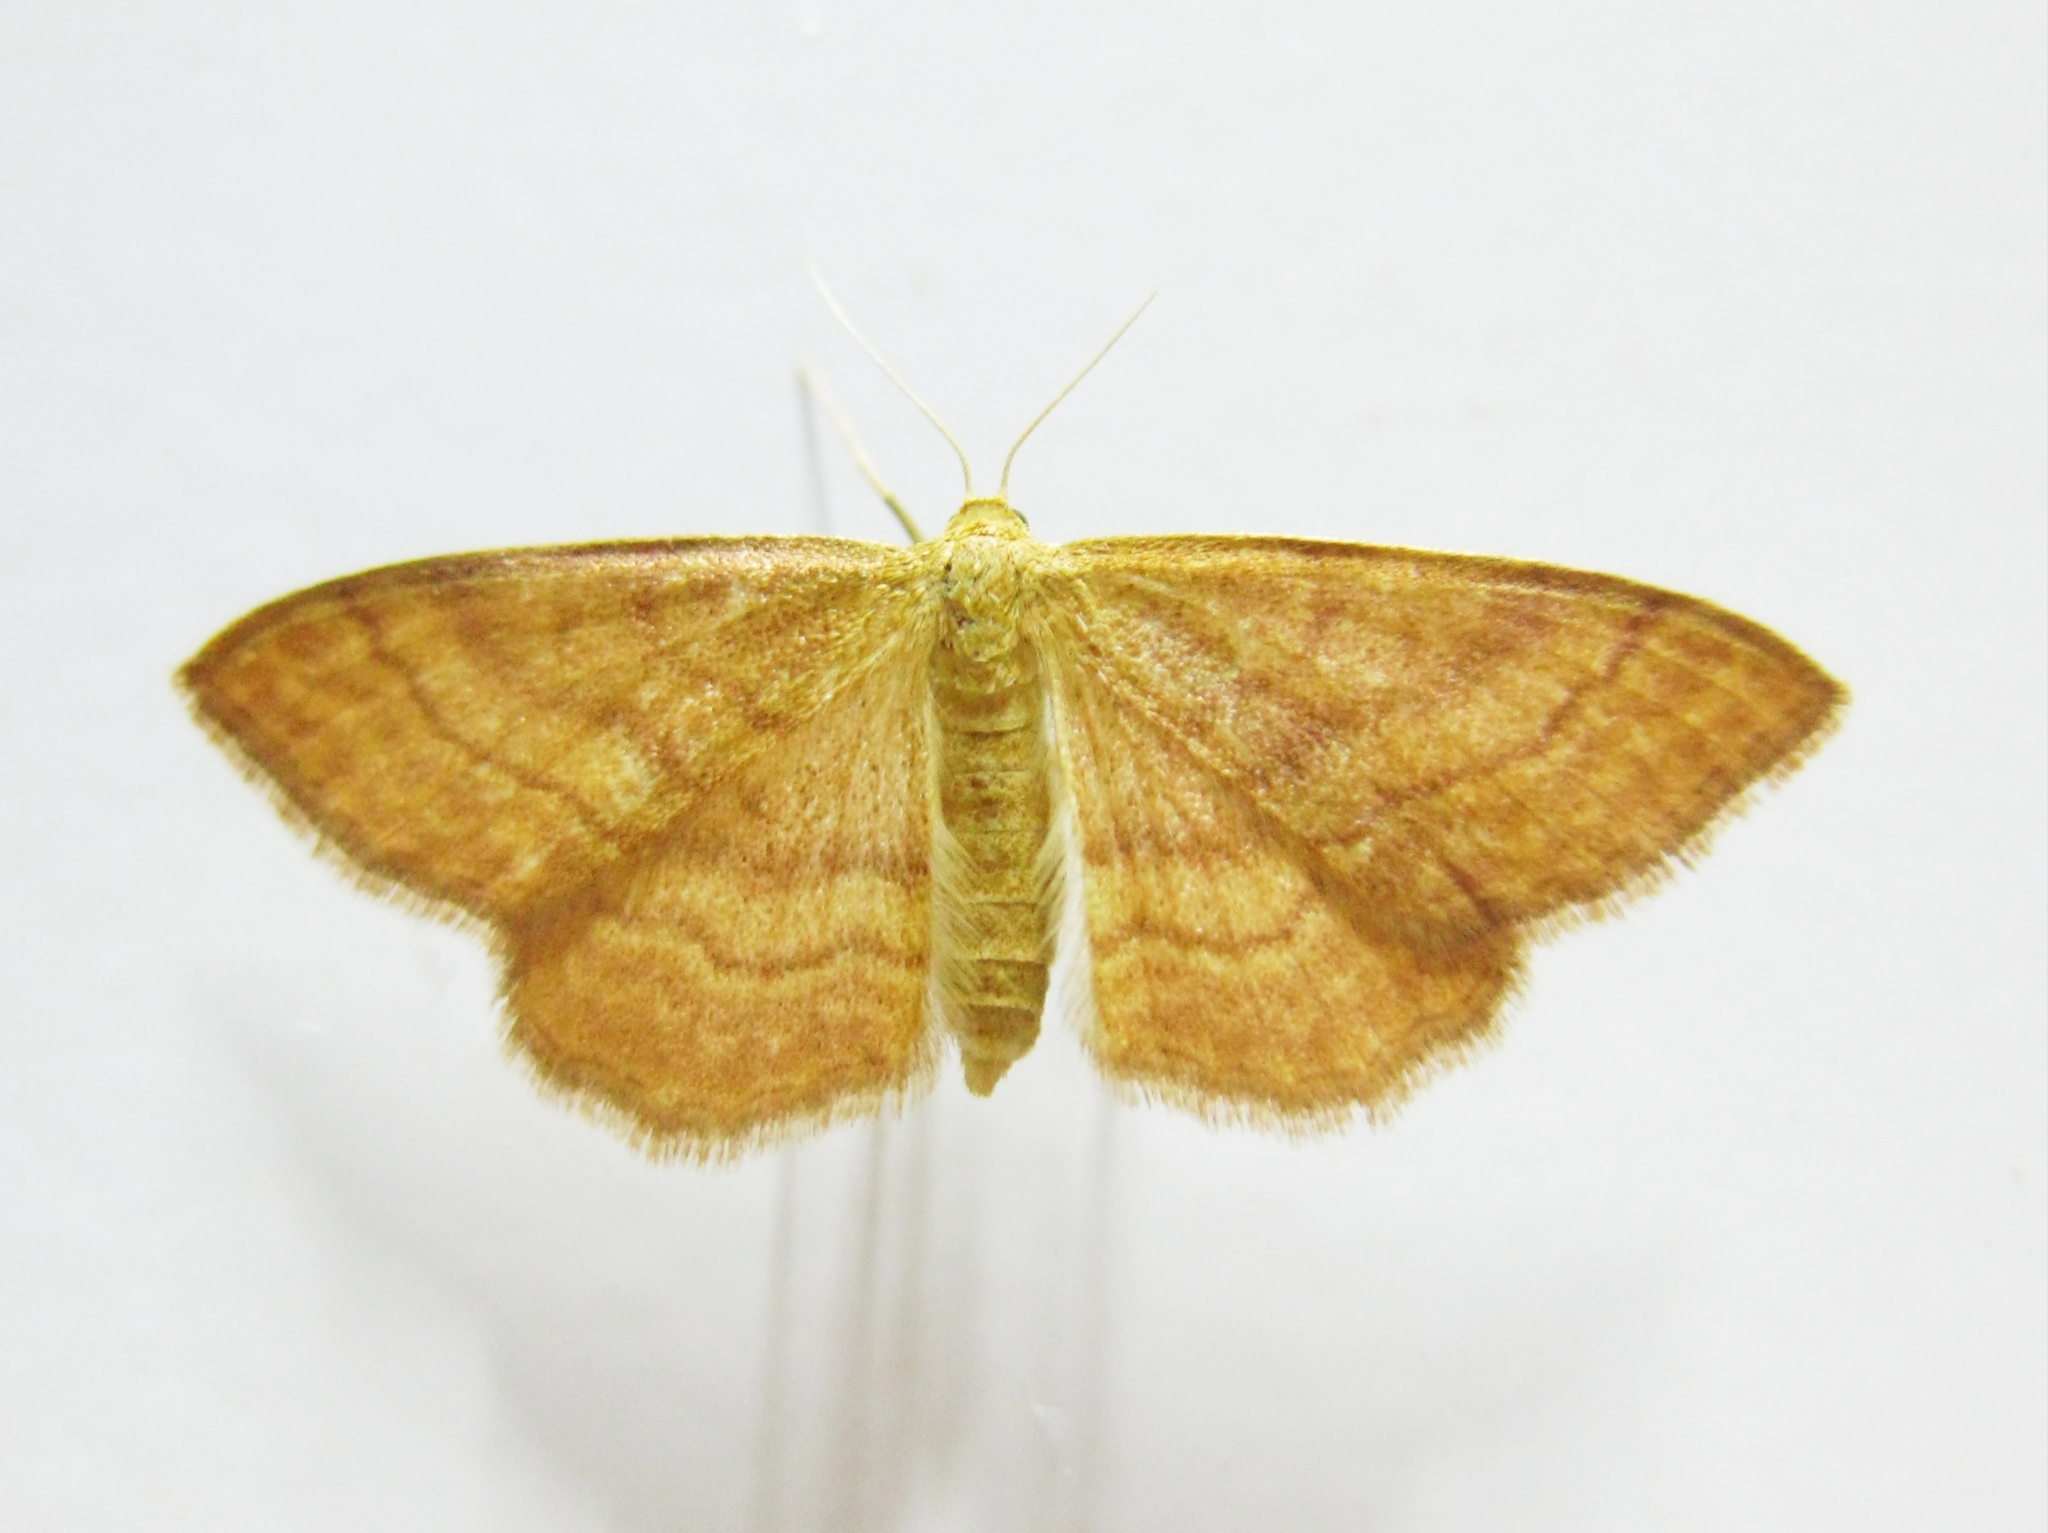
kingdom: Animalia
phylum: Arthropoda
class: Insecta
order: Lepidoptera
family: Geometridae
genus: Idaea
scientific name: Idaea ochrata
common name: Bright wave
